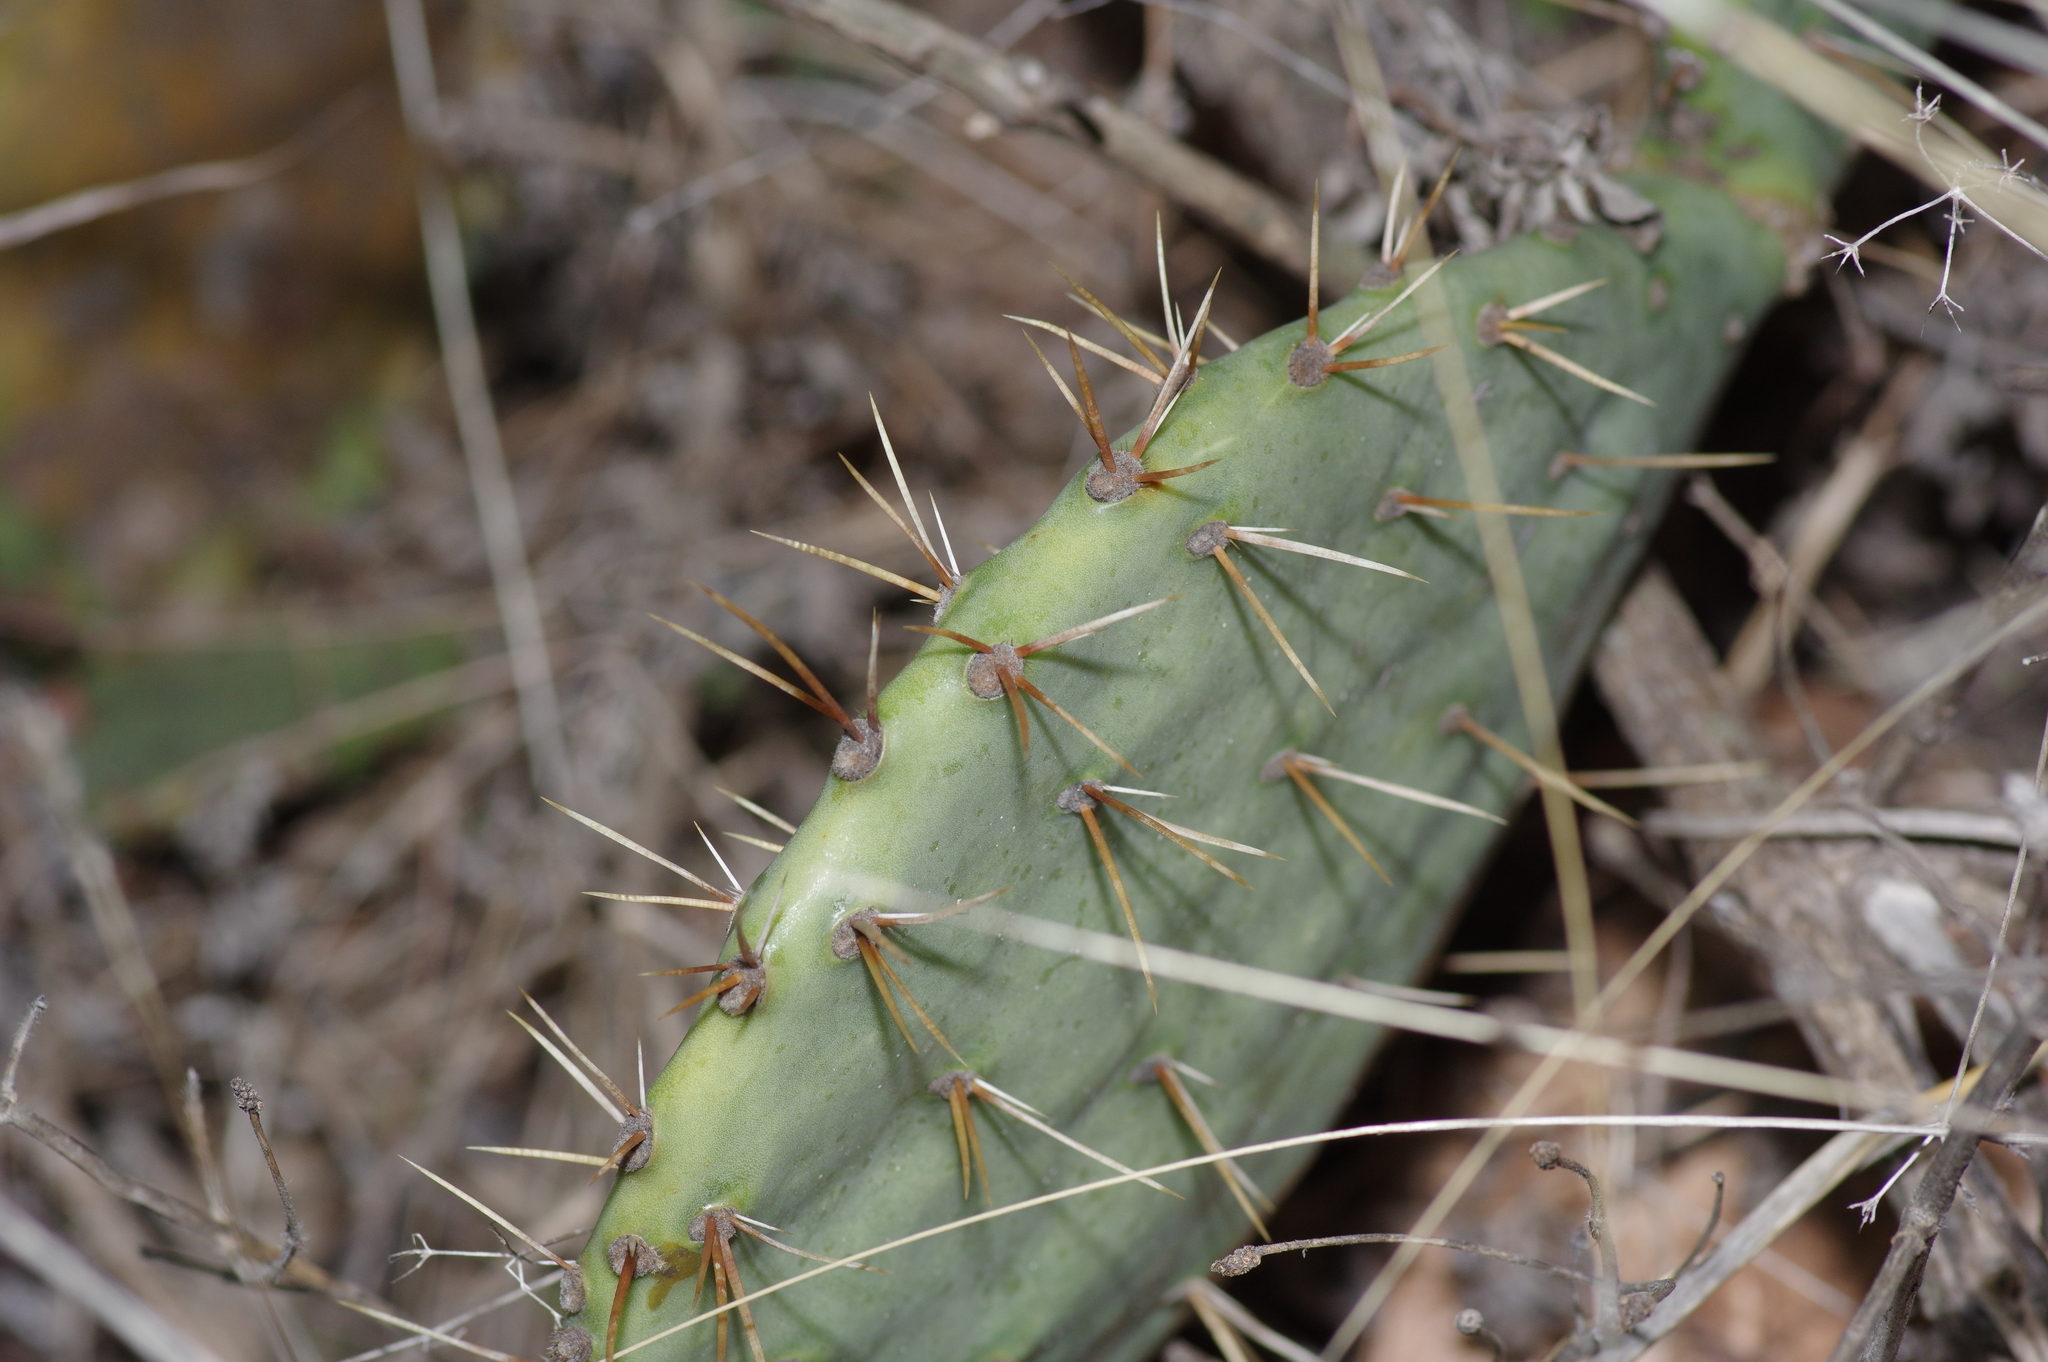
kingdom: Plantae
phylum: Tracheophyta
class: Magnoliopsida
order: Caryophyllales
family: Cactaceae
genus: Opuntia
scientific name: Opuntia engelmannii
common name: Cactus-apple
